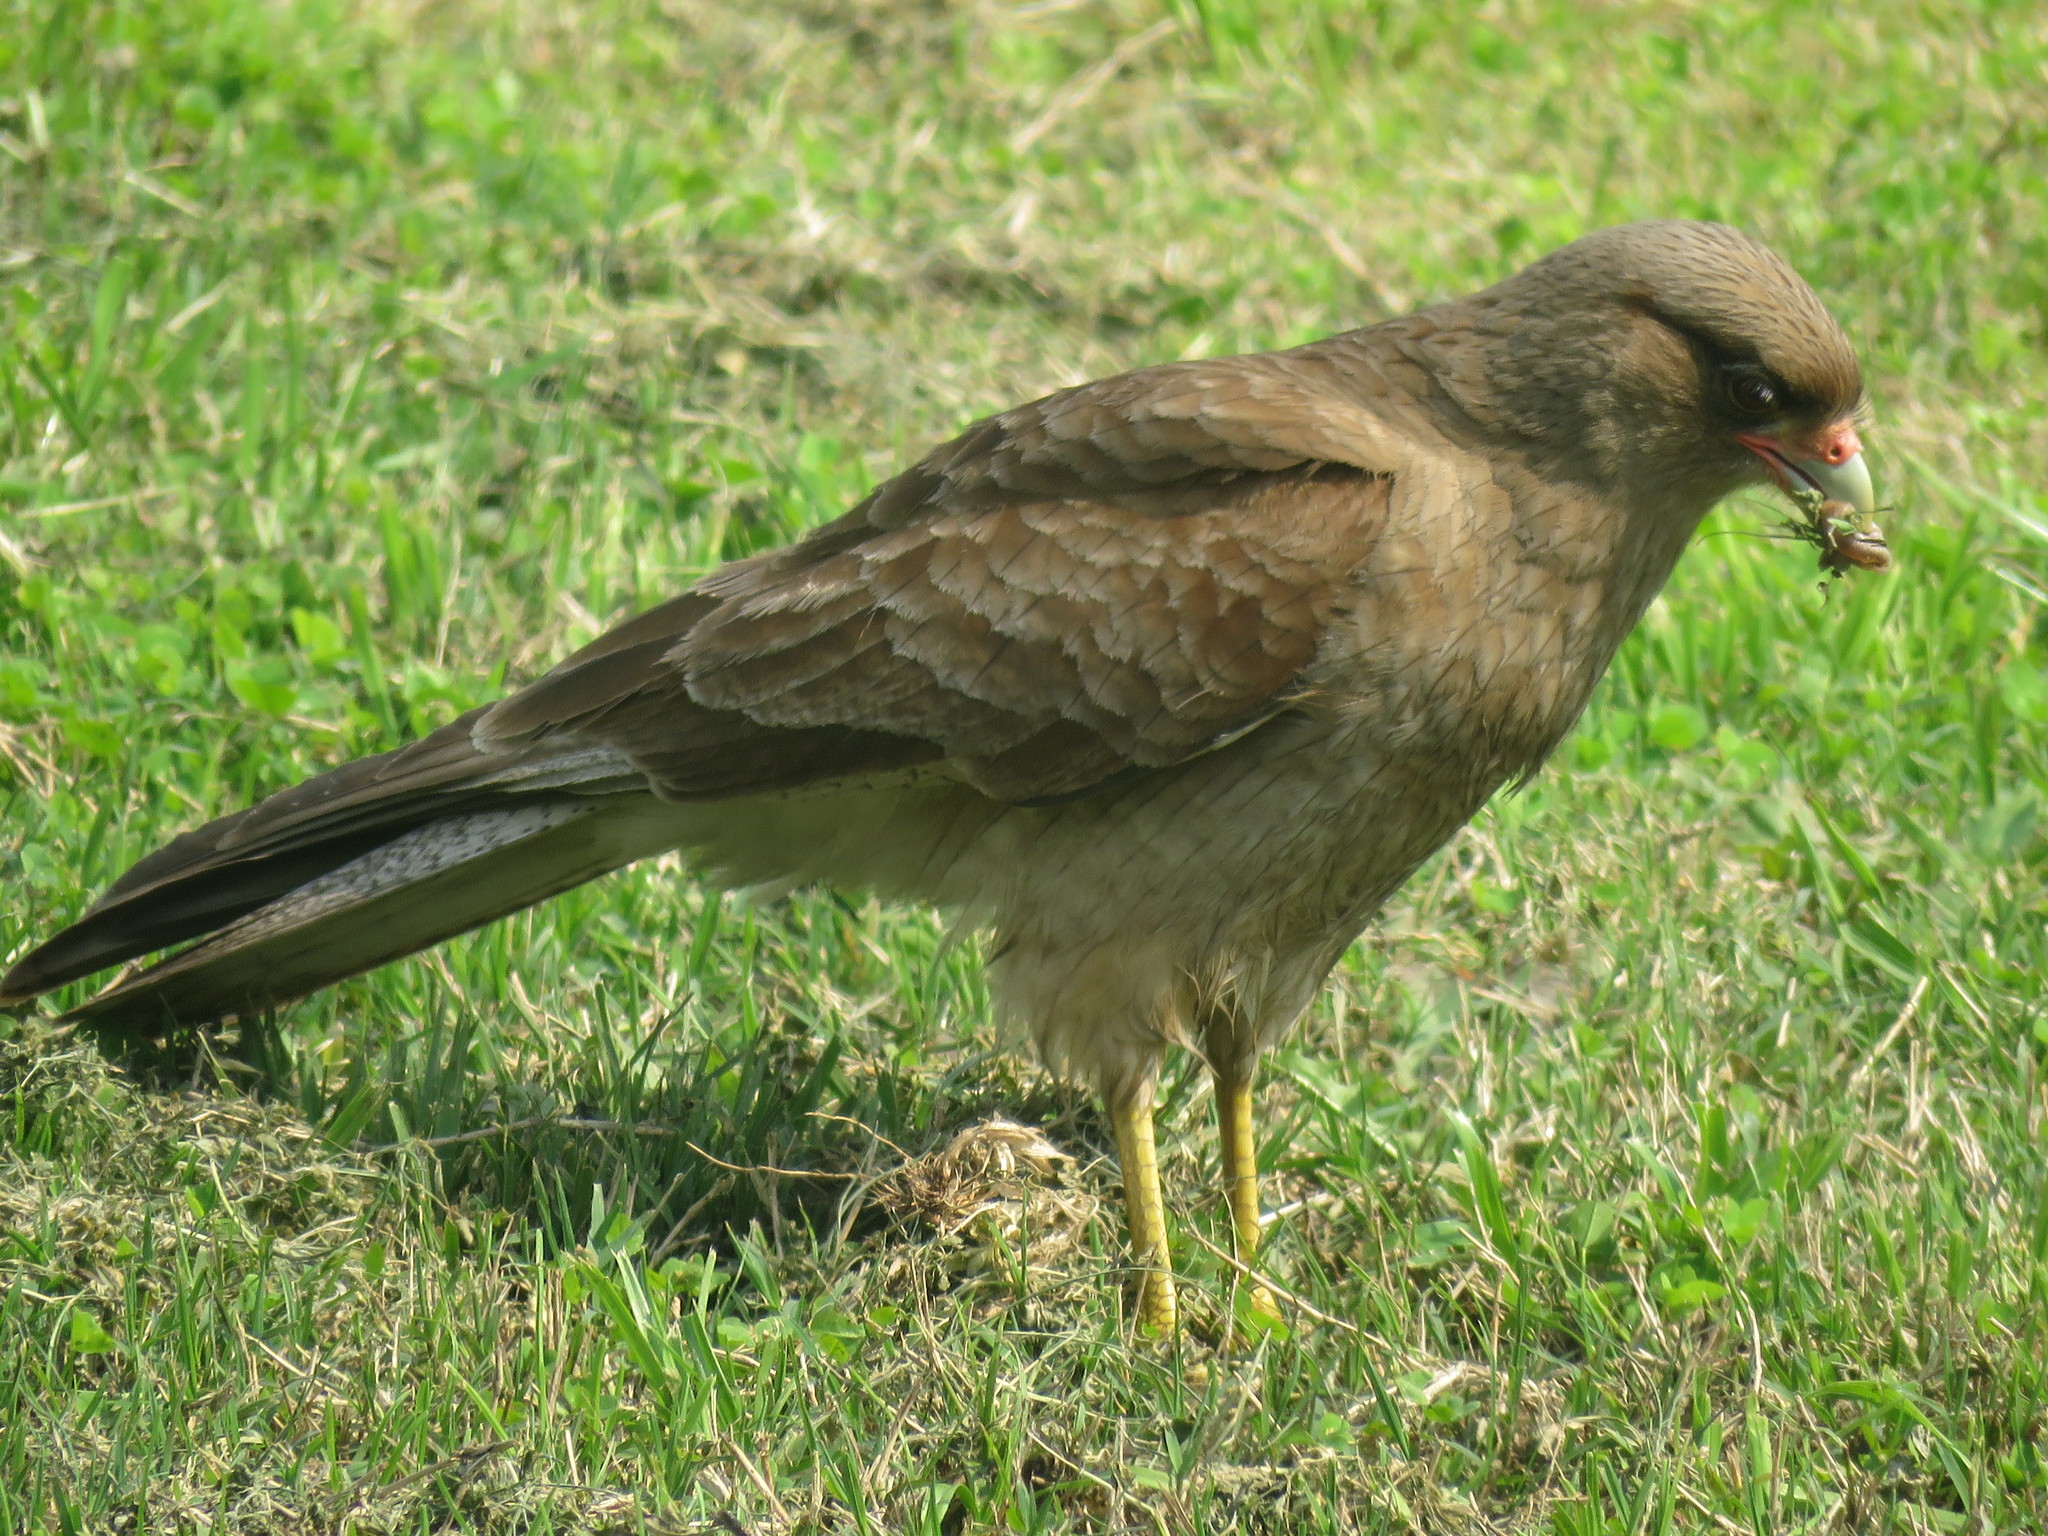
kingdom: Animalia
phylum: Chordata
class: Aves
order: Falconiformes
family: Falconidae
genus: Daptrius
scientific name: Daptrius
